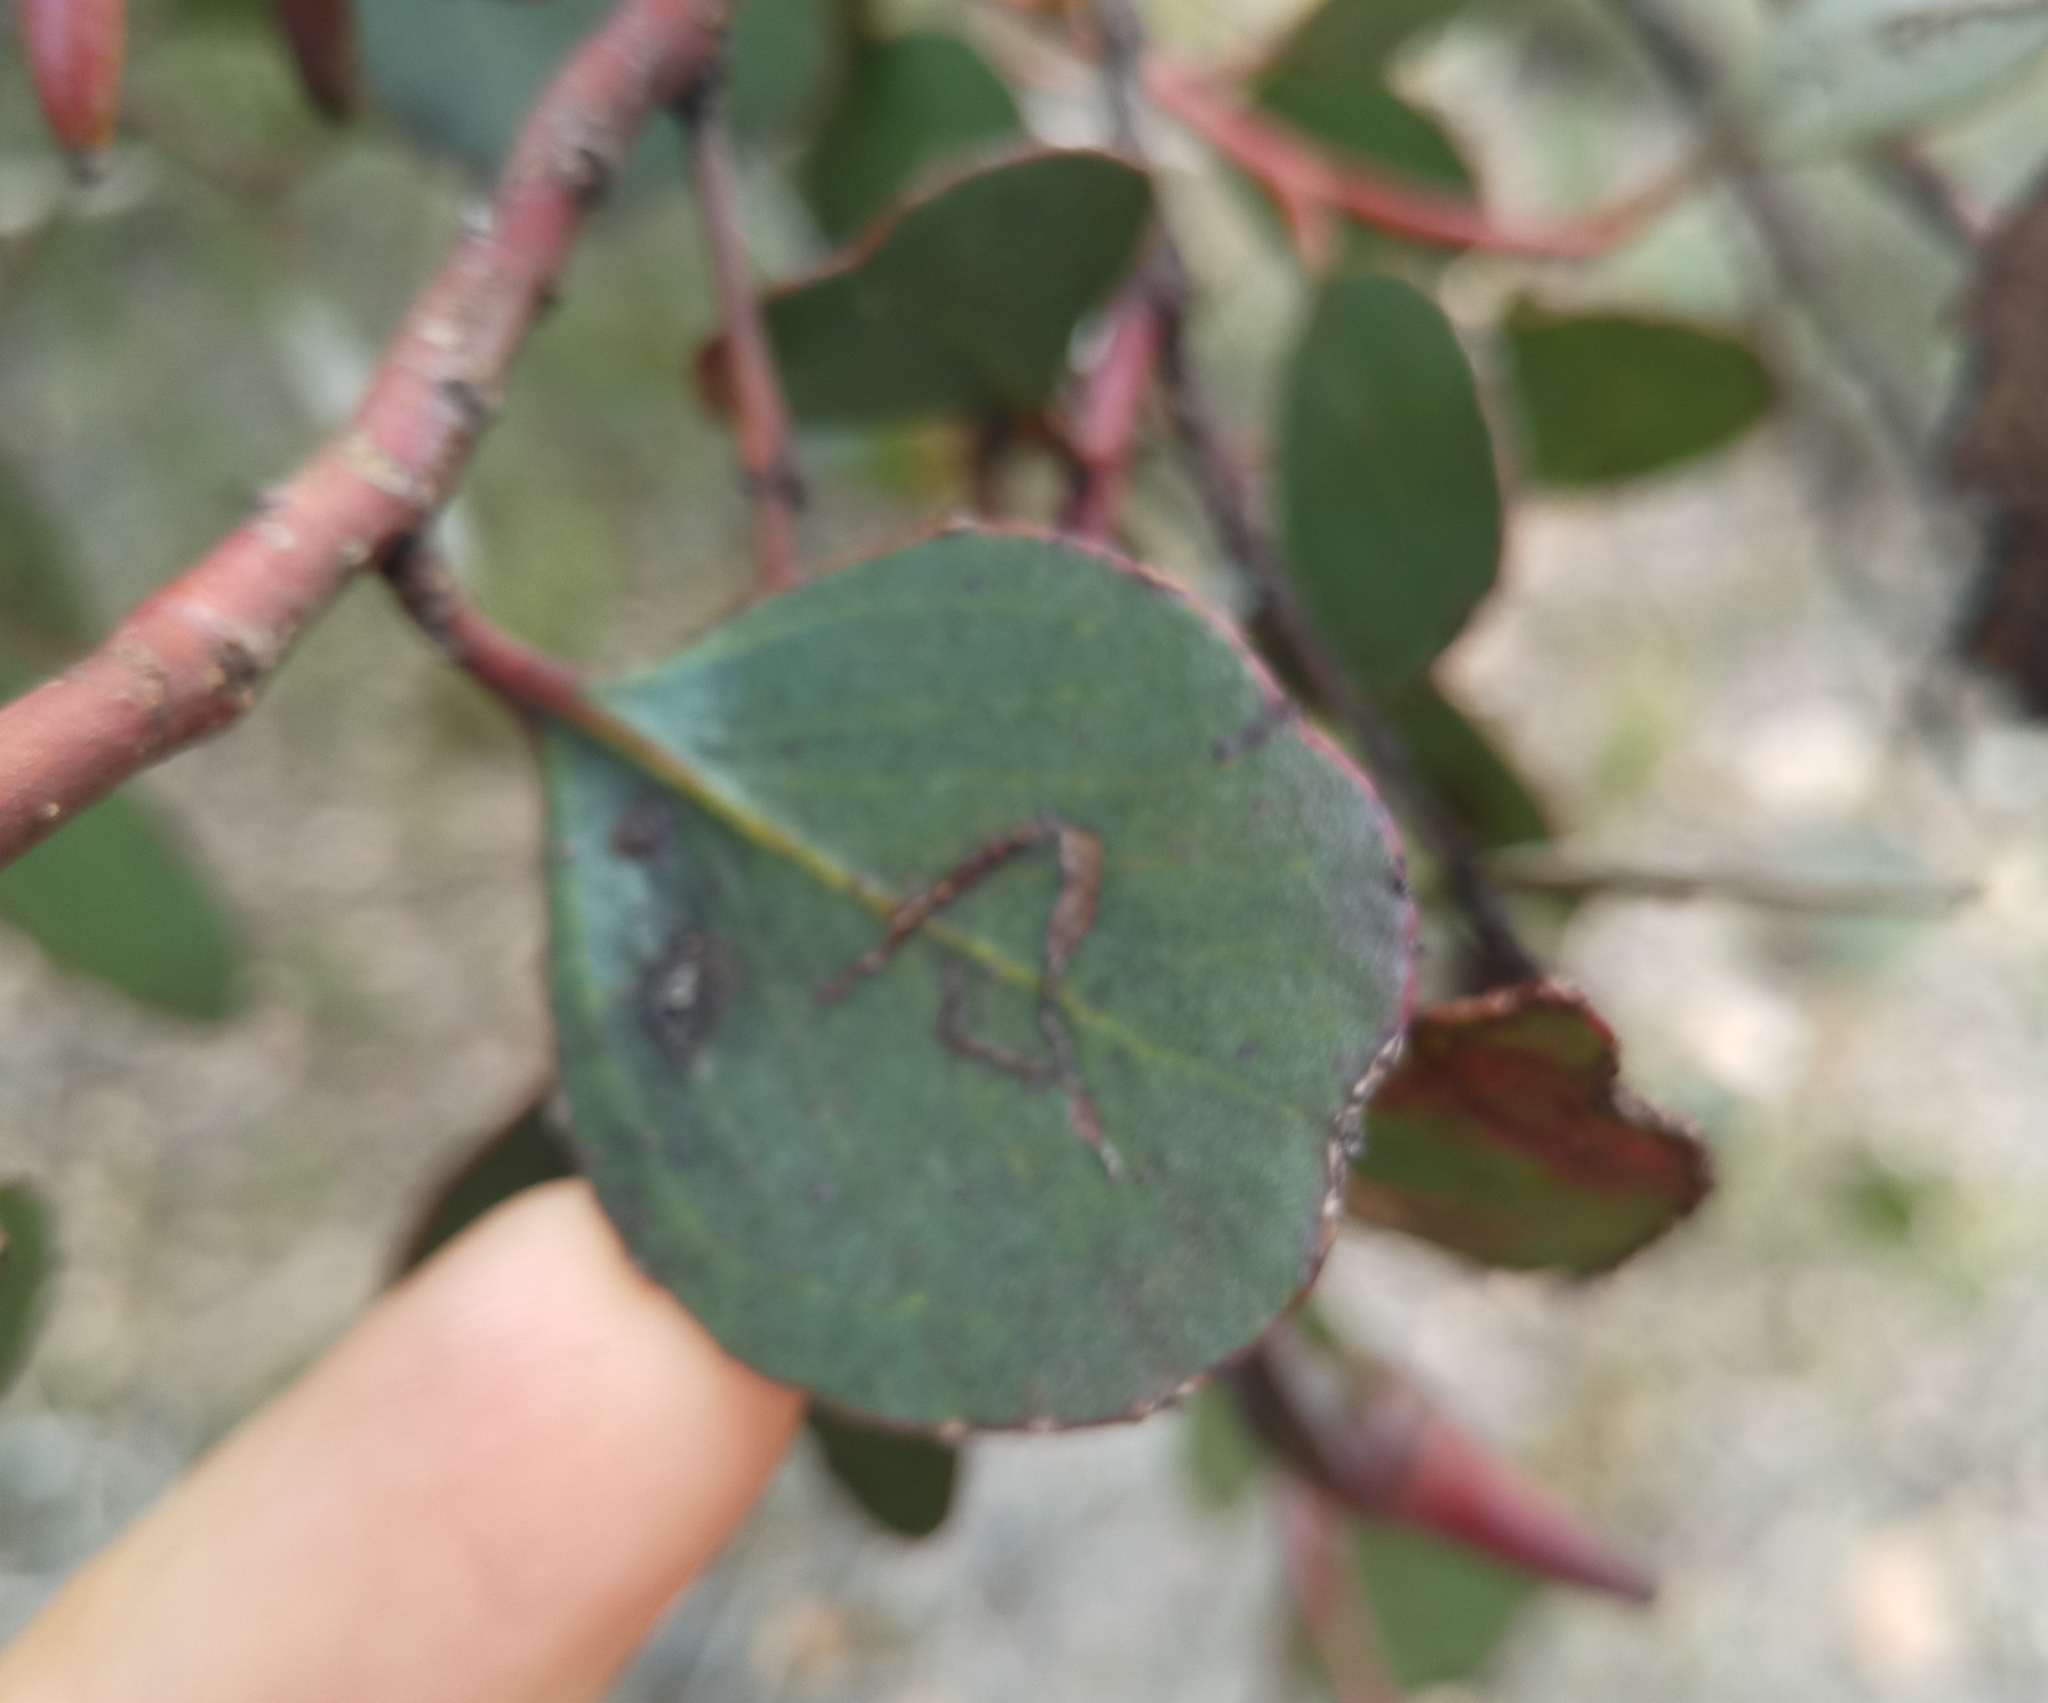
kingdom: Plantae
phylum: Tracheophyta
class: Magnoliopsida
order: Myrtales
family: Myrtaceae
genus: Eucalyptus
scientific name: Eucalyptus platypus
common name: Moort
